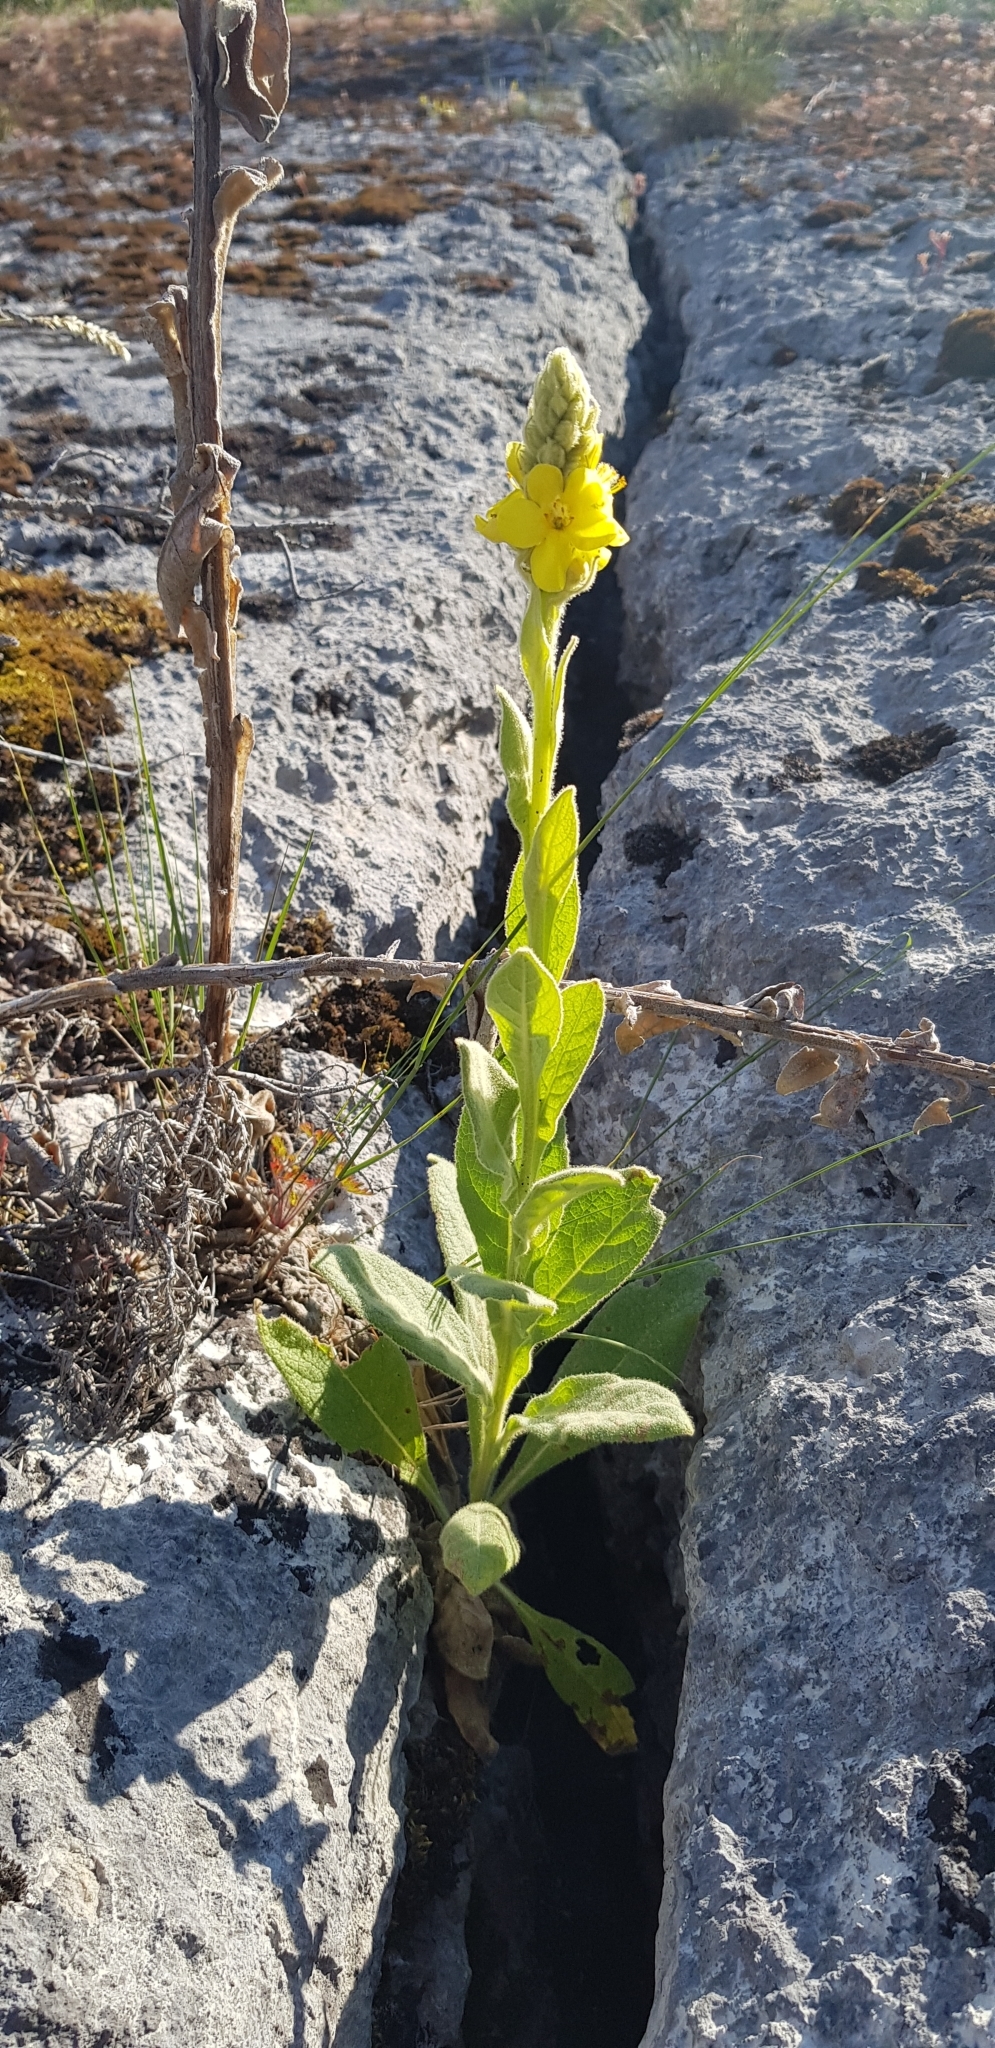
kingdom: Plantae
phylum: Tracheophyta
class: Magnoliopsida
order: Lamiales
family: Scrophulariaceae
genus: Verbascum
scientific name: Verbascum thapsus
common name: Common mullein
